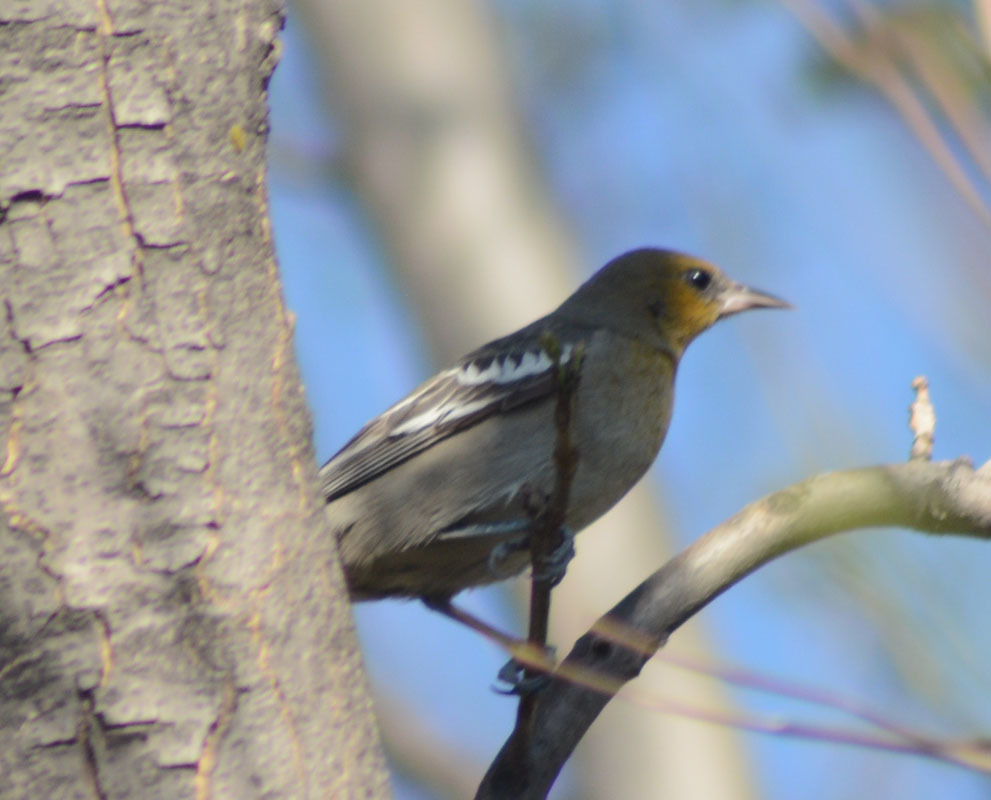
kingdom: Animalia
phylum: Chordata
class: Aves
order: Passeriformes
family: Icteridae
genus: Icterus
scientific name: Icterus abeillei
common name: Black-backed oriole
